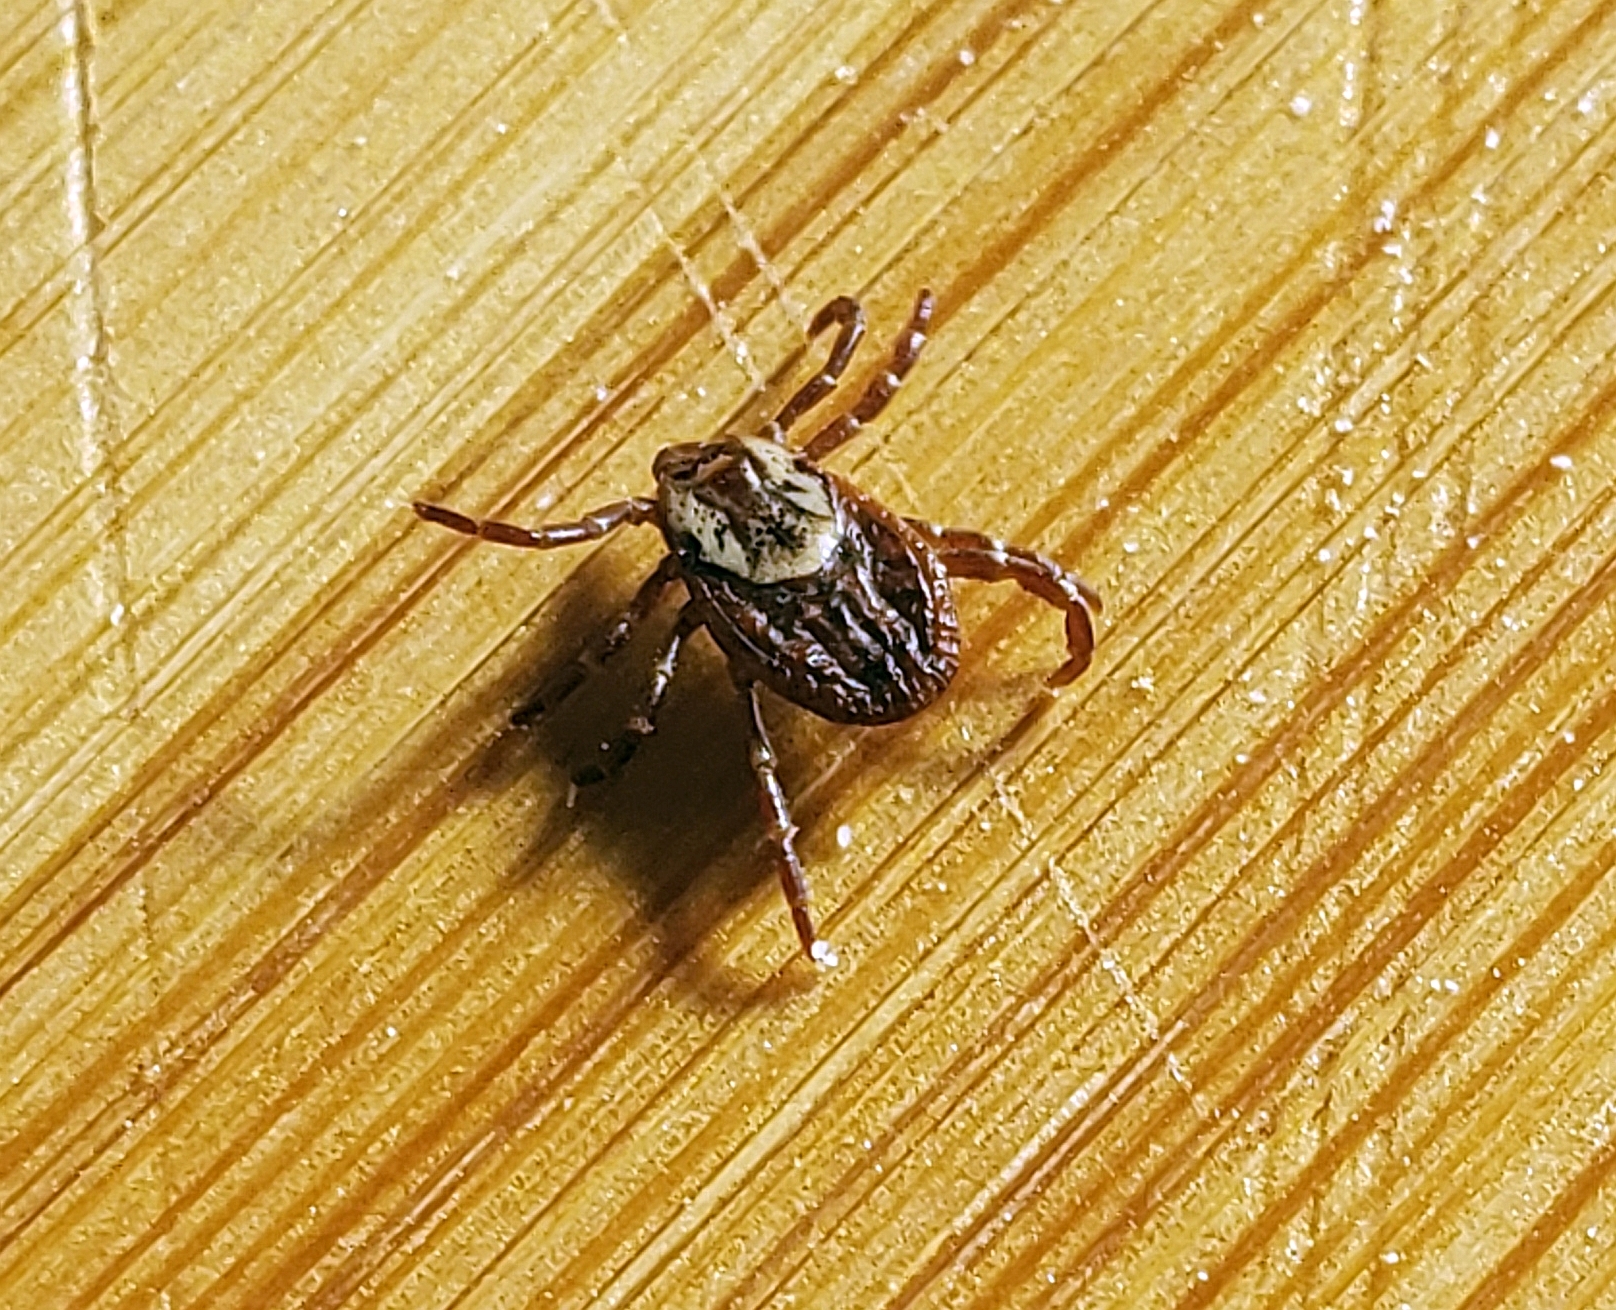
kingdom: Animalia
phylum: Arthropoda
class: Arachnida
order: Ixodida
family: Ixodidae
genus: Dermacentor
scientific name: Dermacentor variabilis
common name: American dog tick
